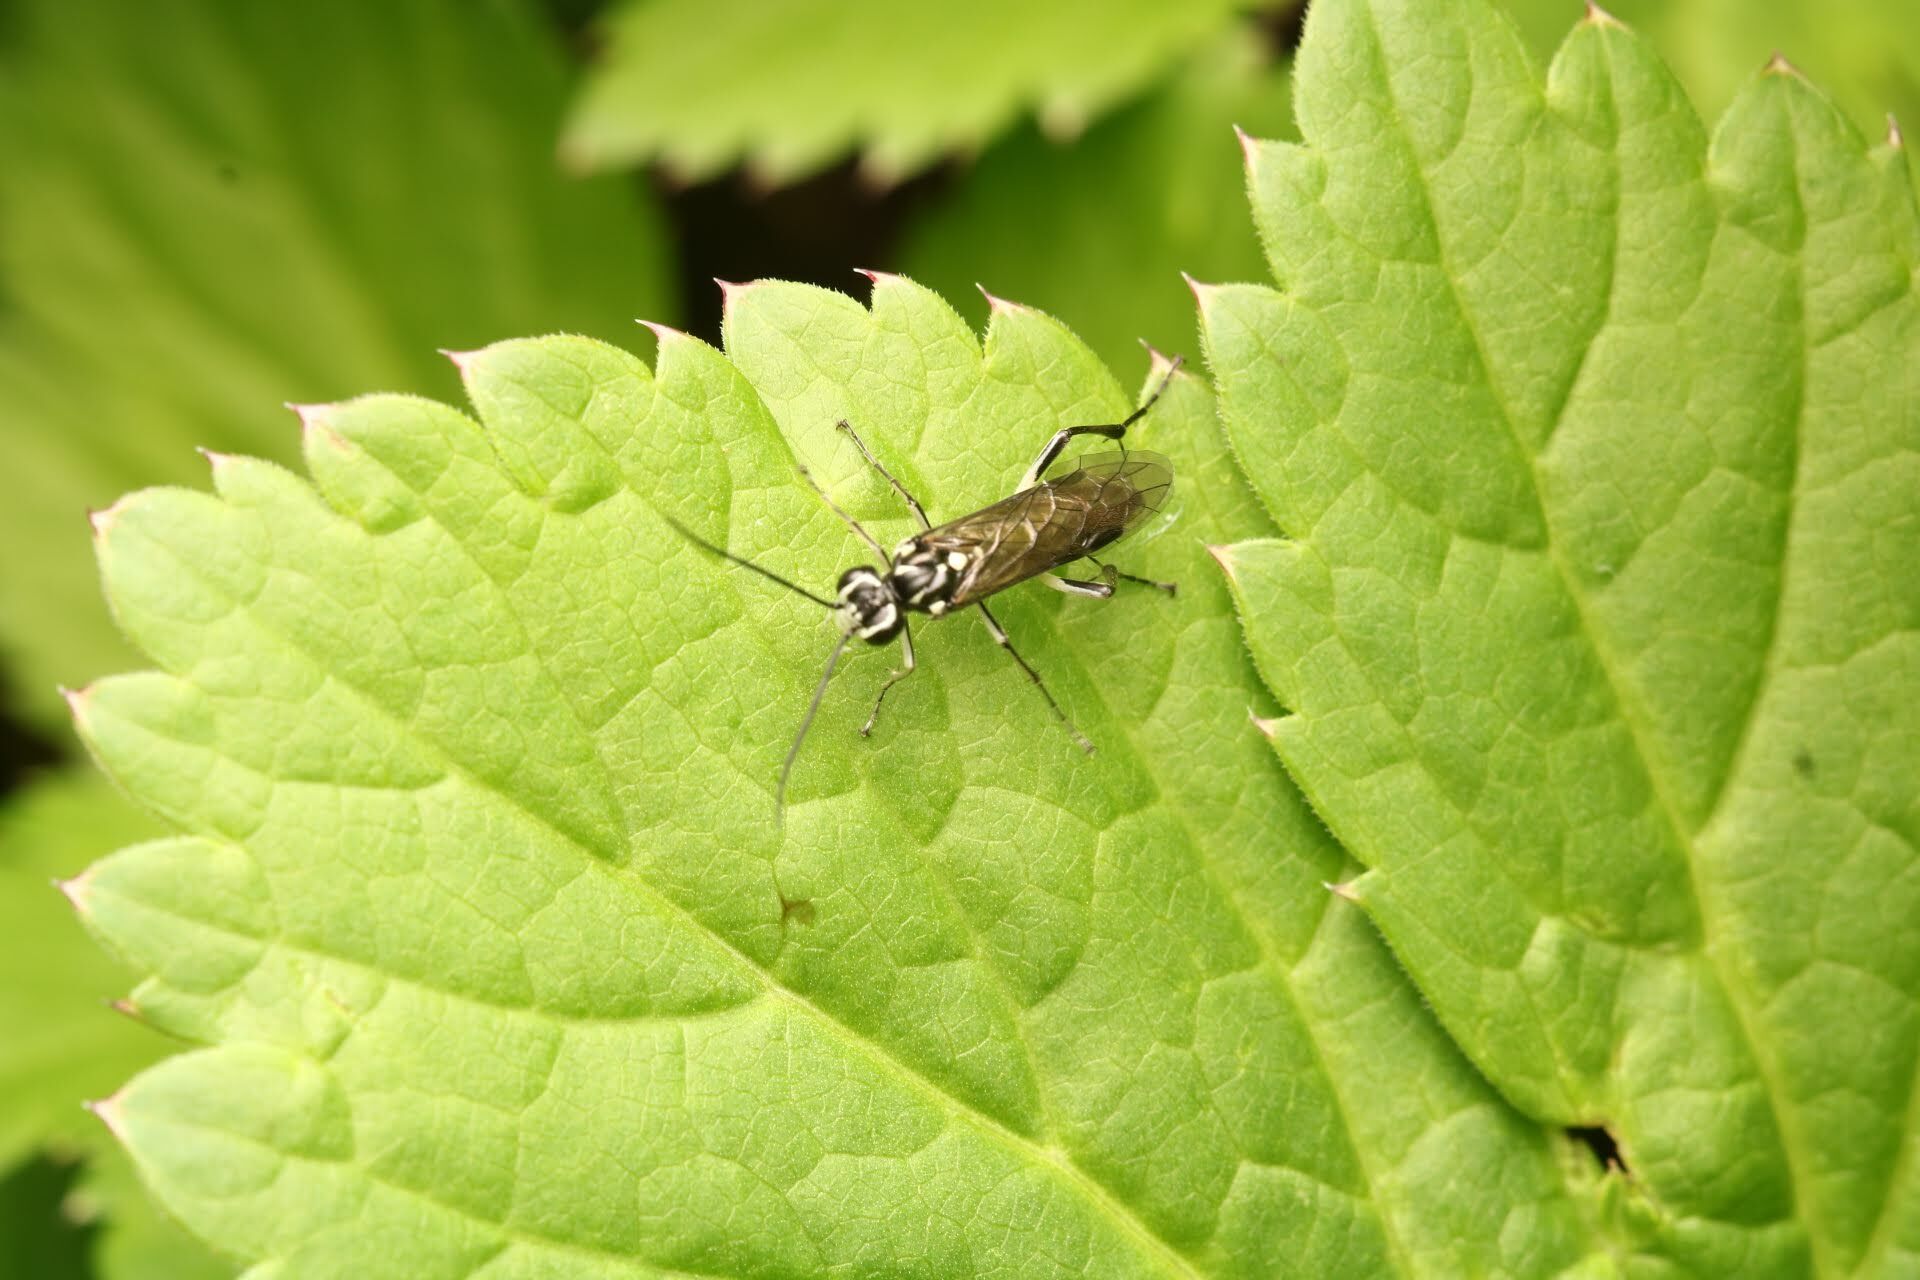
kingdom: Animalia
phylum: Arthropoda
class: Insecta
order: Hymenoptera
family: Tenthredinidae
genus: Pachyprotasis
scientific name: Pachyprotasis rapae
